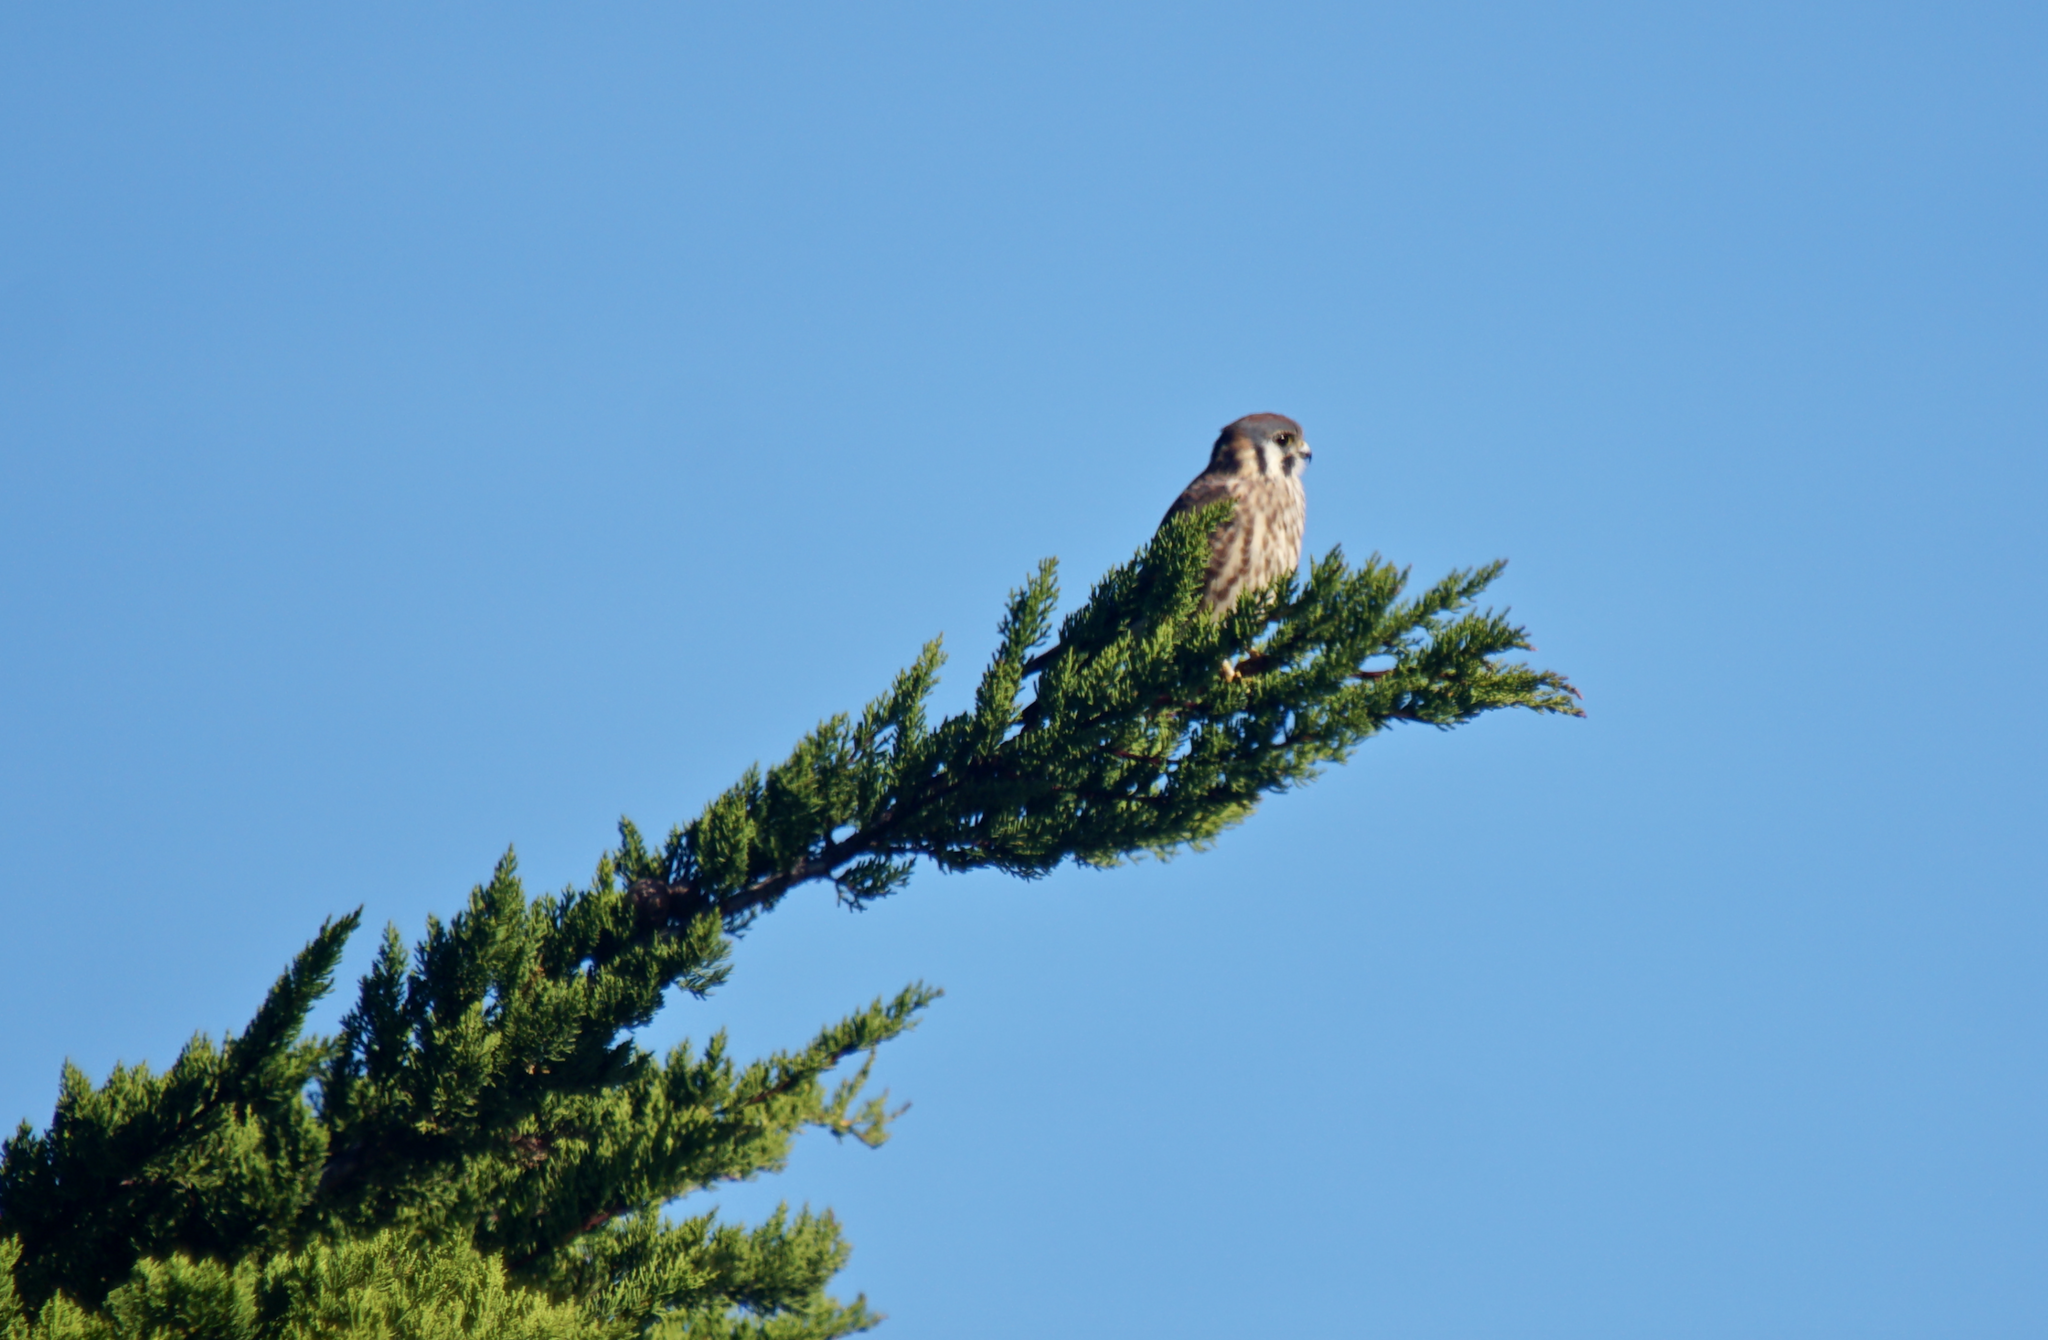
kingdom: Animalia
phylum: Chordata
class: Aves
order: Falconiformes
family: Falconidae
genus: Falco
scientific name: Falco sparverius
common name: American kestrel
